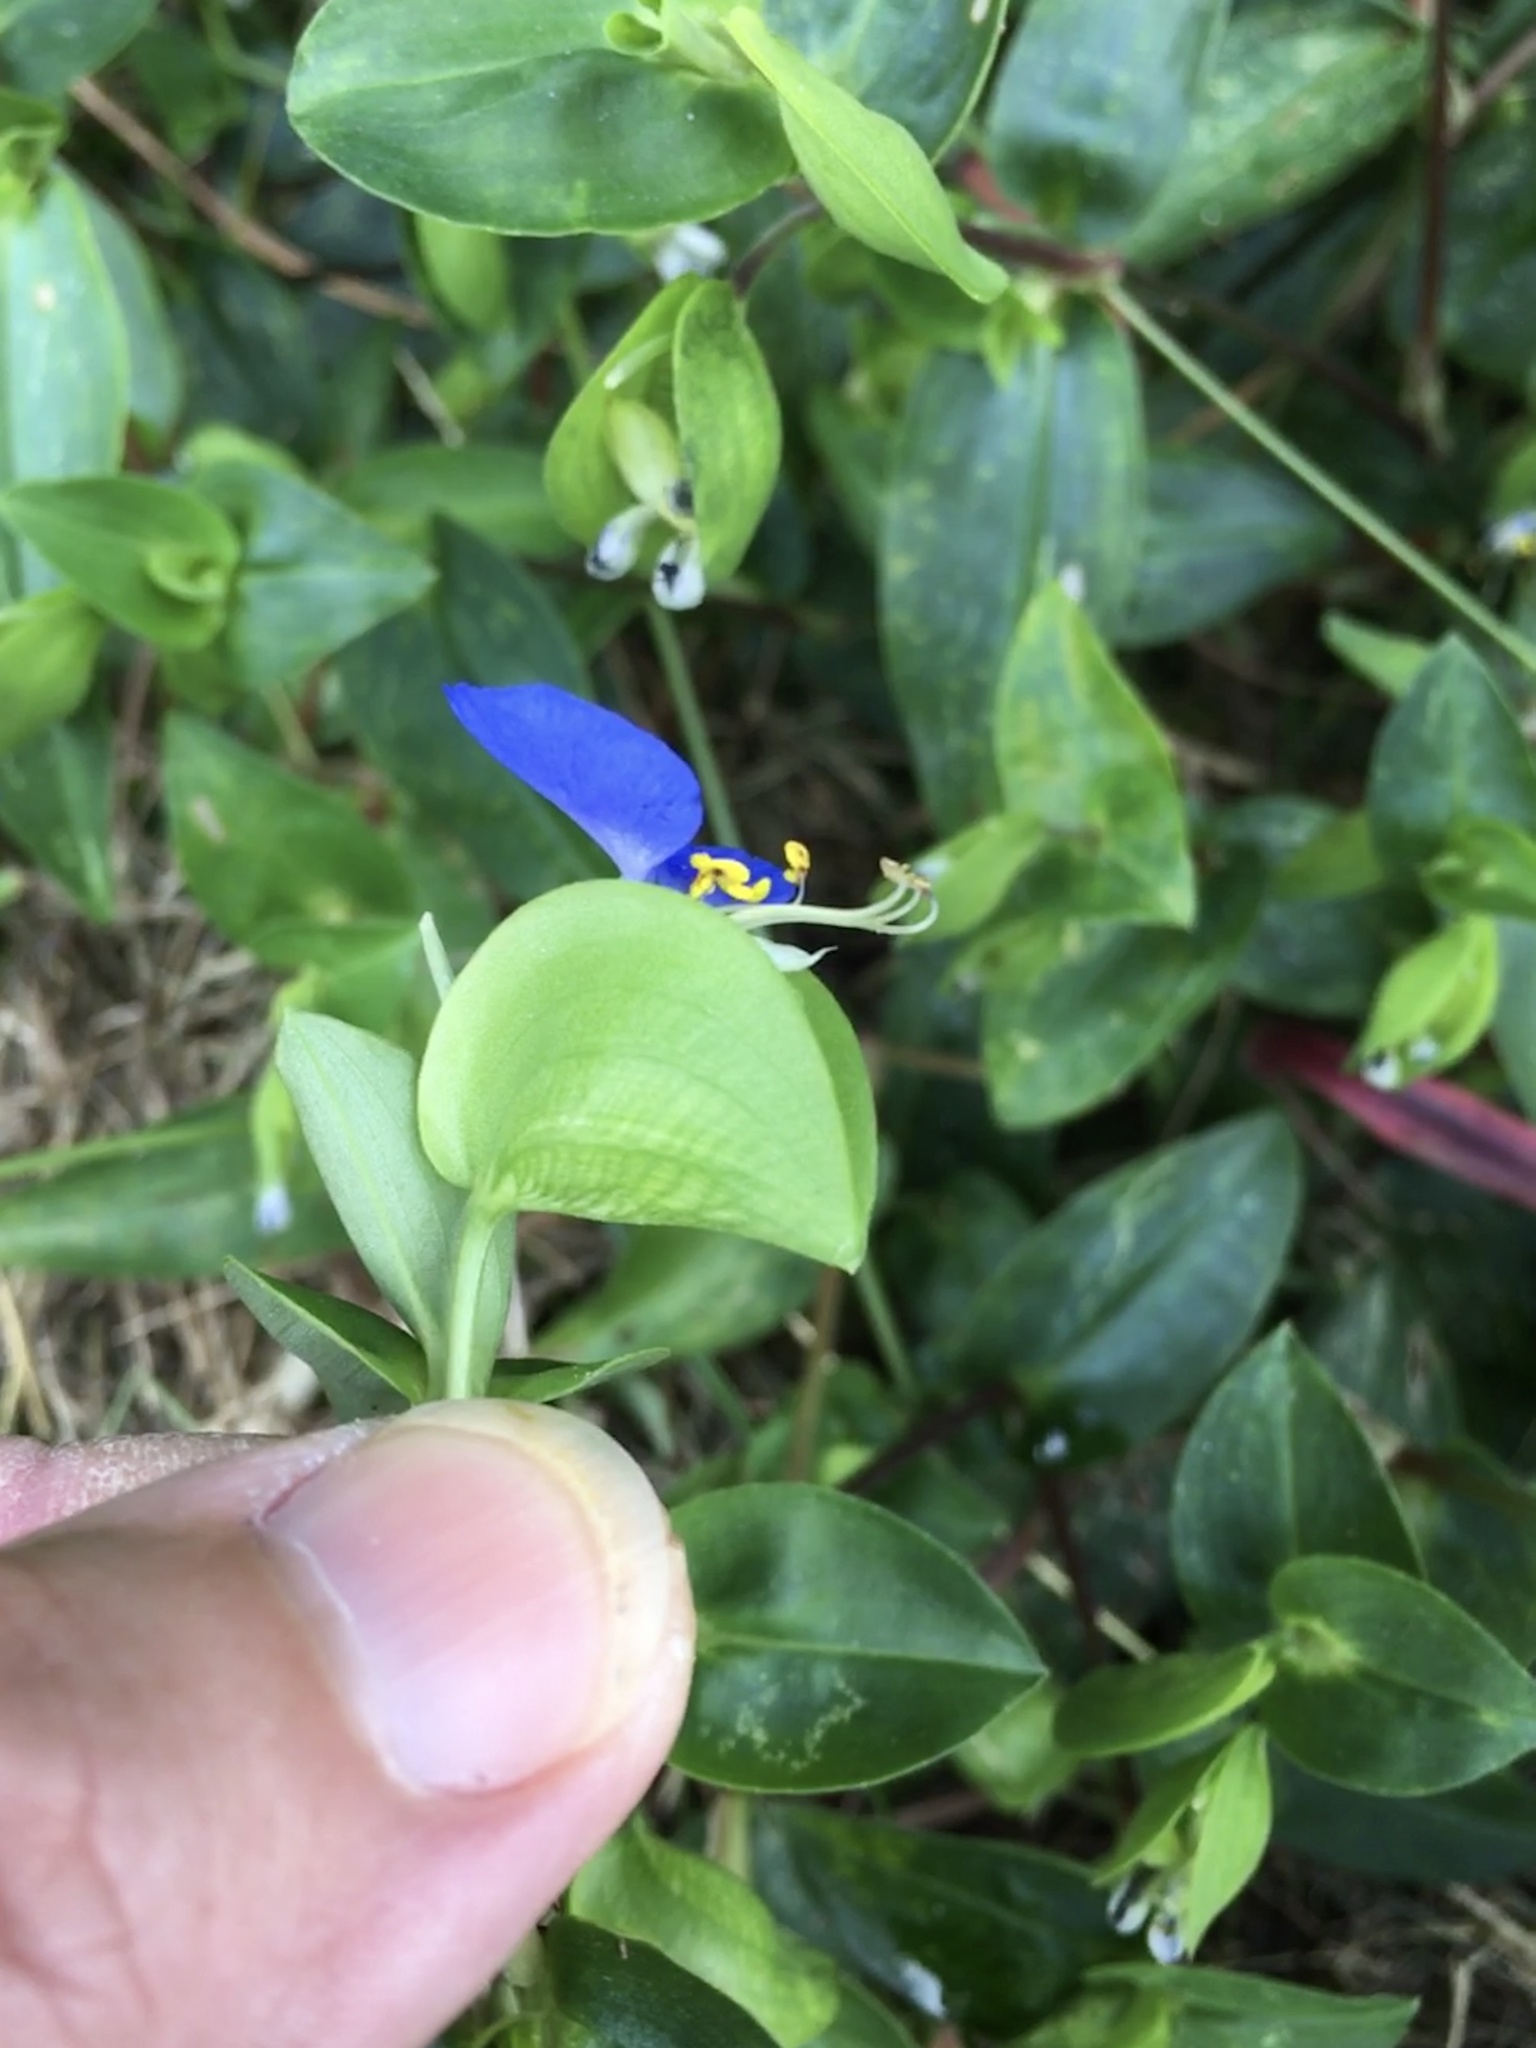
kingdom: Plantae
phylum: Tracheophyta
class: Liliopsida
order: Commelinales
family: Commelinaceae
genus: Commelina
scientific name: Commelina communis
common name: Asiatic dayflower
